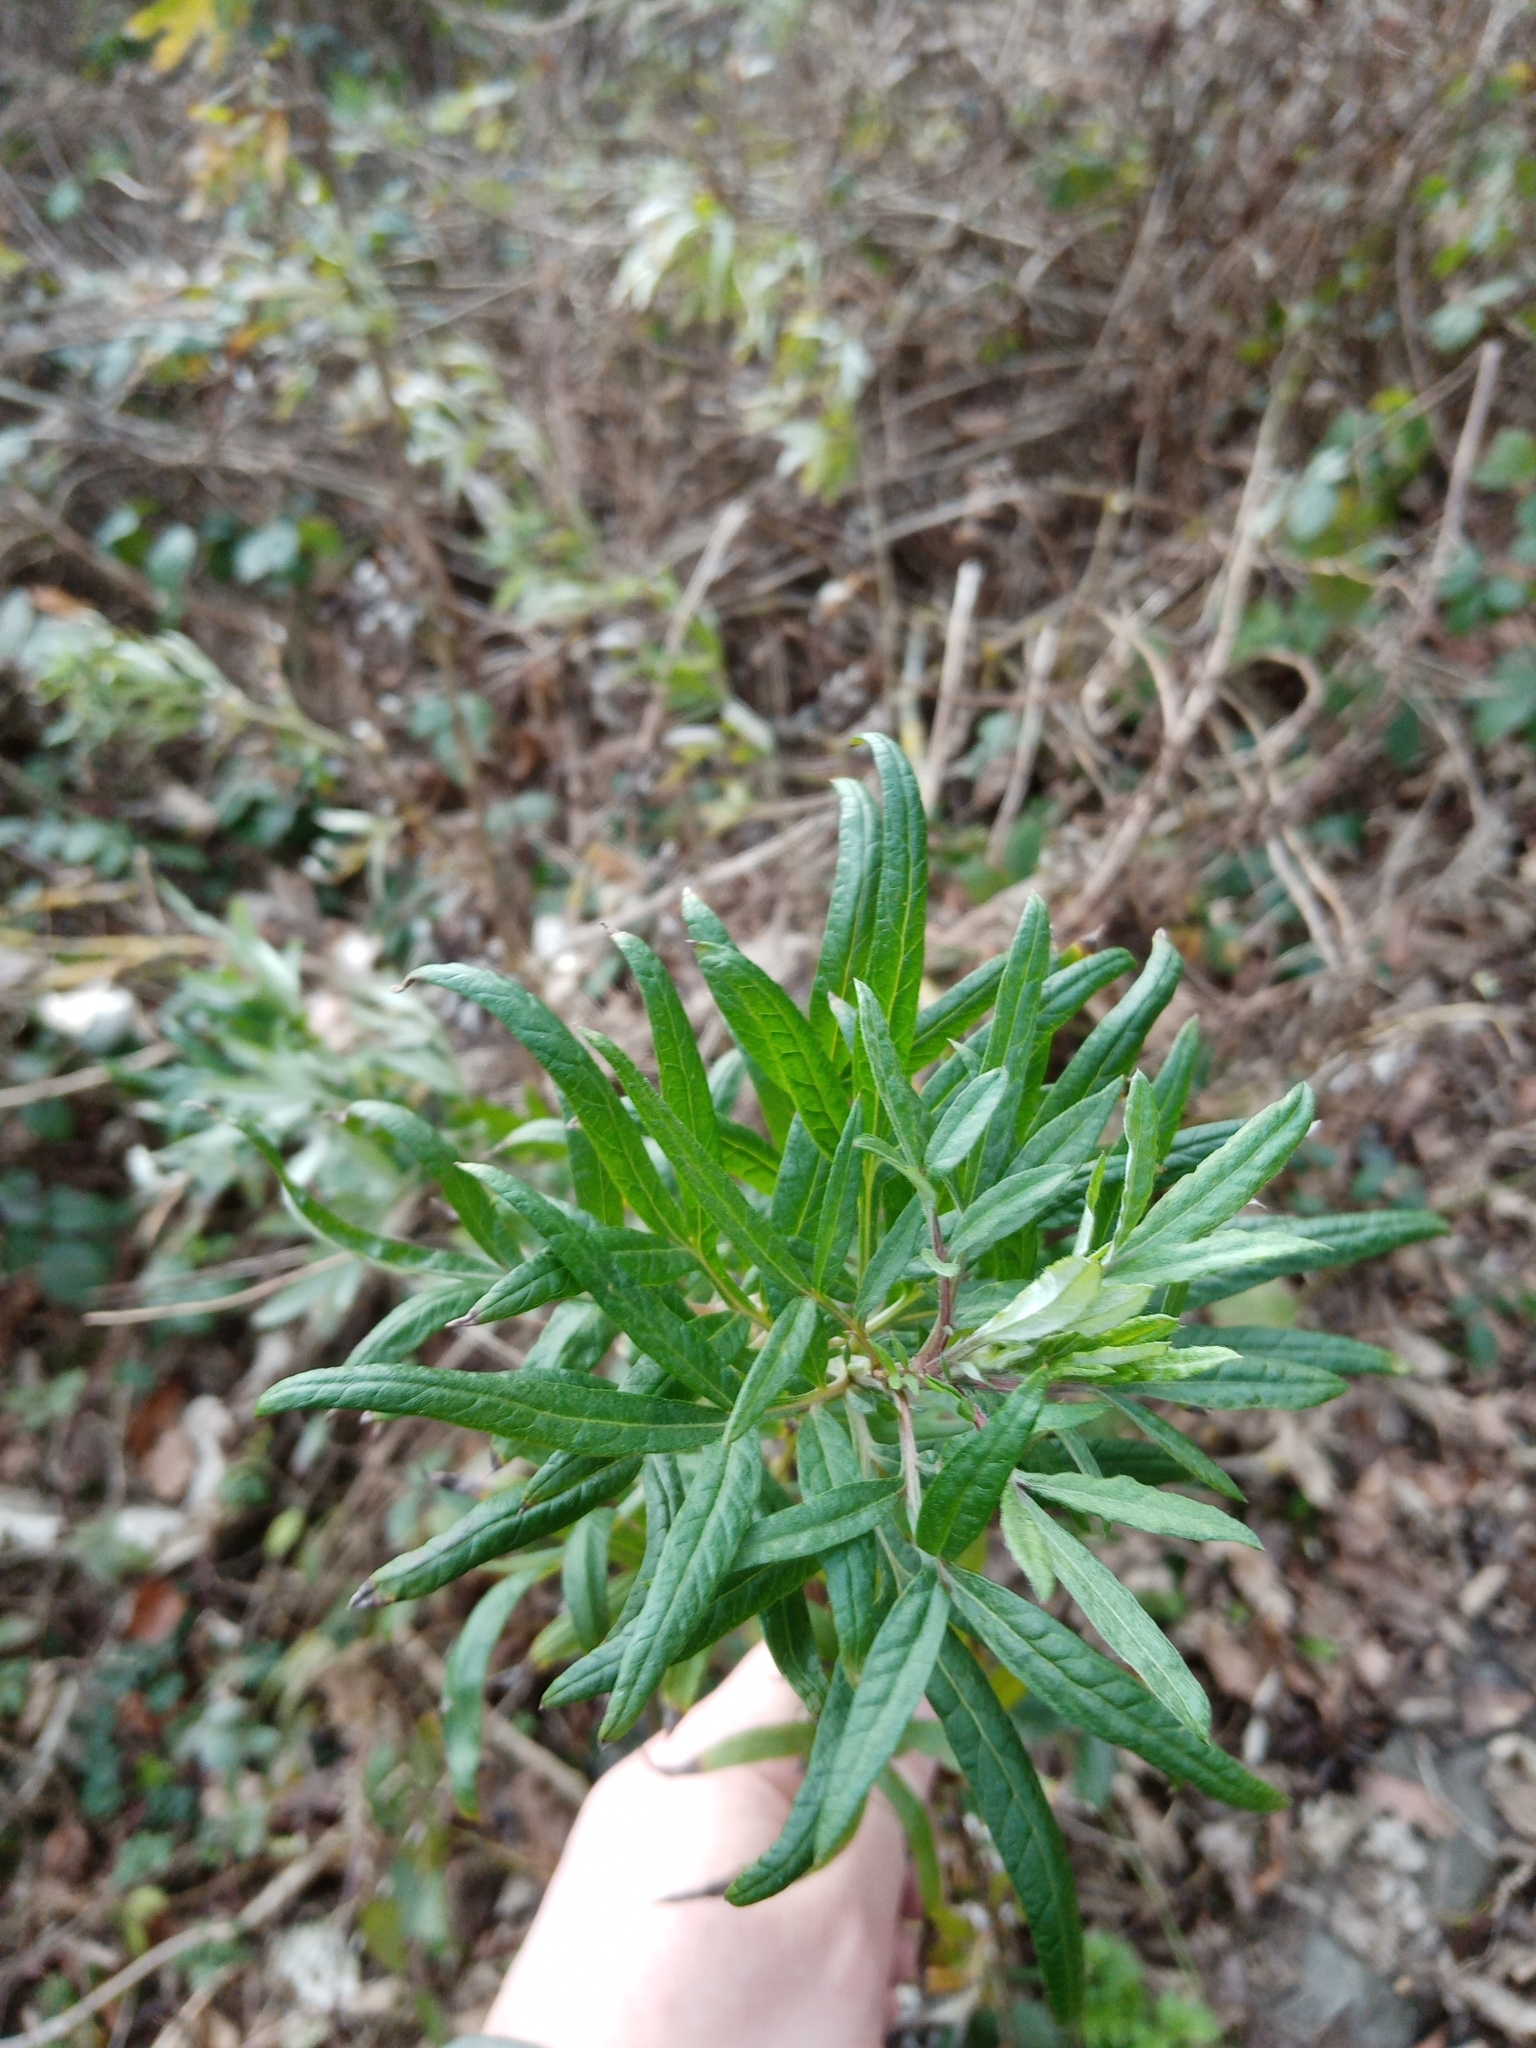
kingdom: Plantae
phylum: Tracheophyta
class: Magnoliopsida
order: Asterales
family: Asteraceae
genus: Artemisia
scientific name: Artemisia vulgaris
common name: Mugwort
